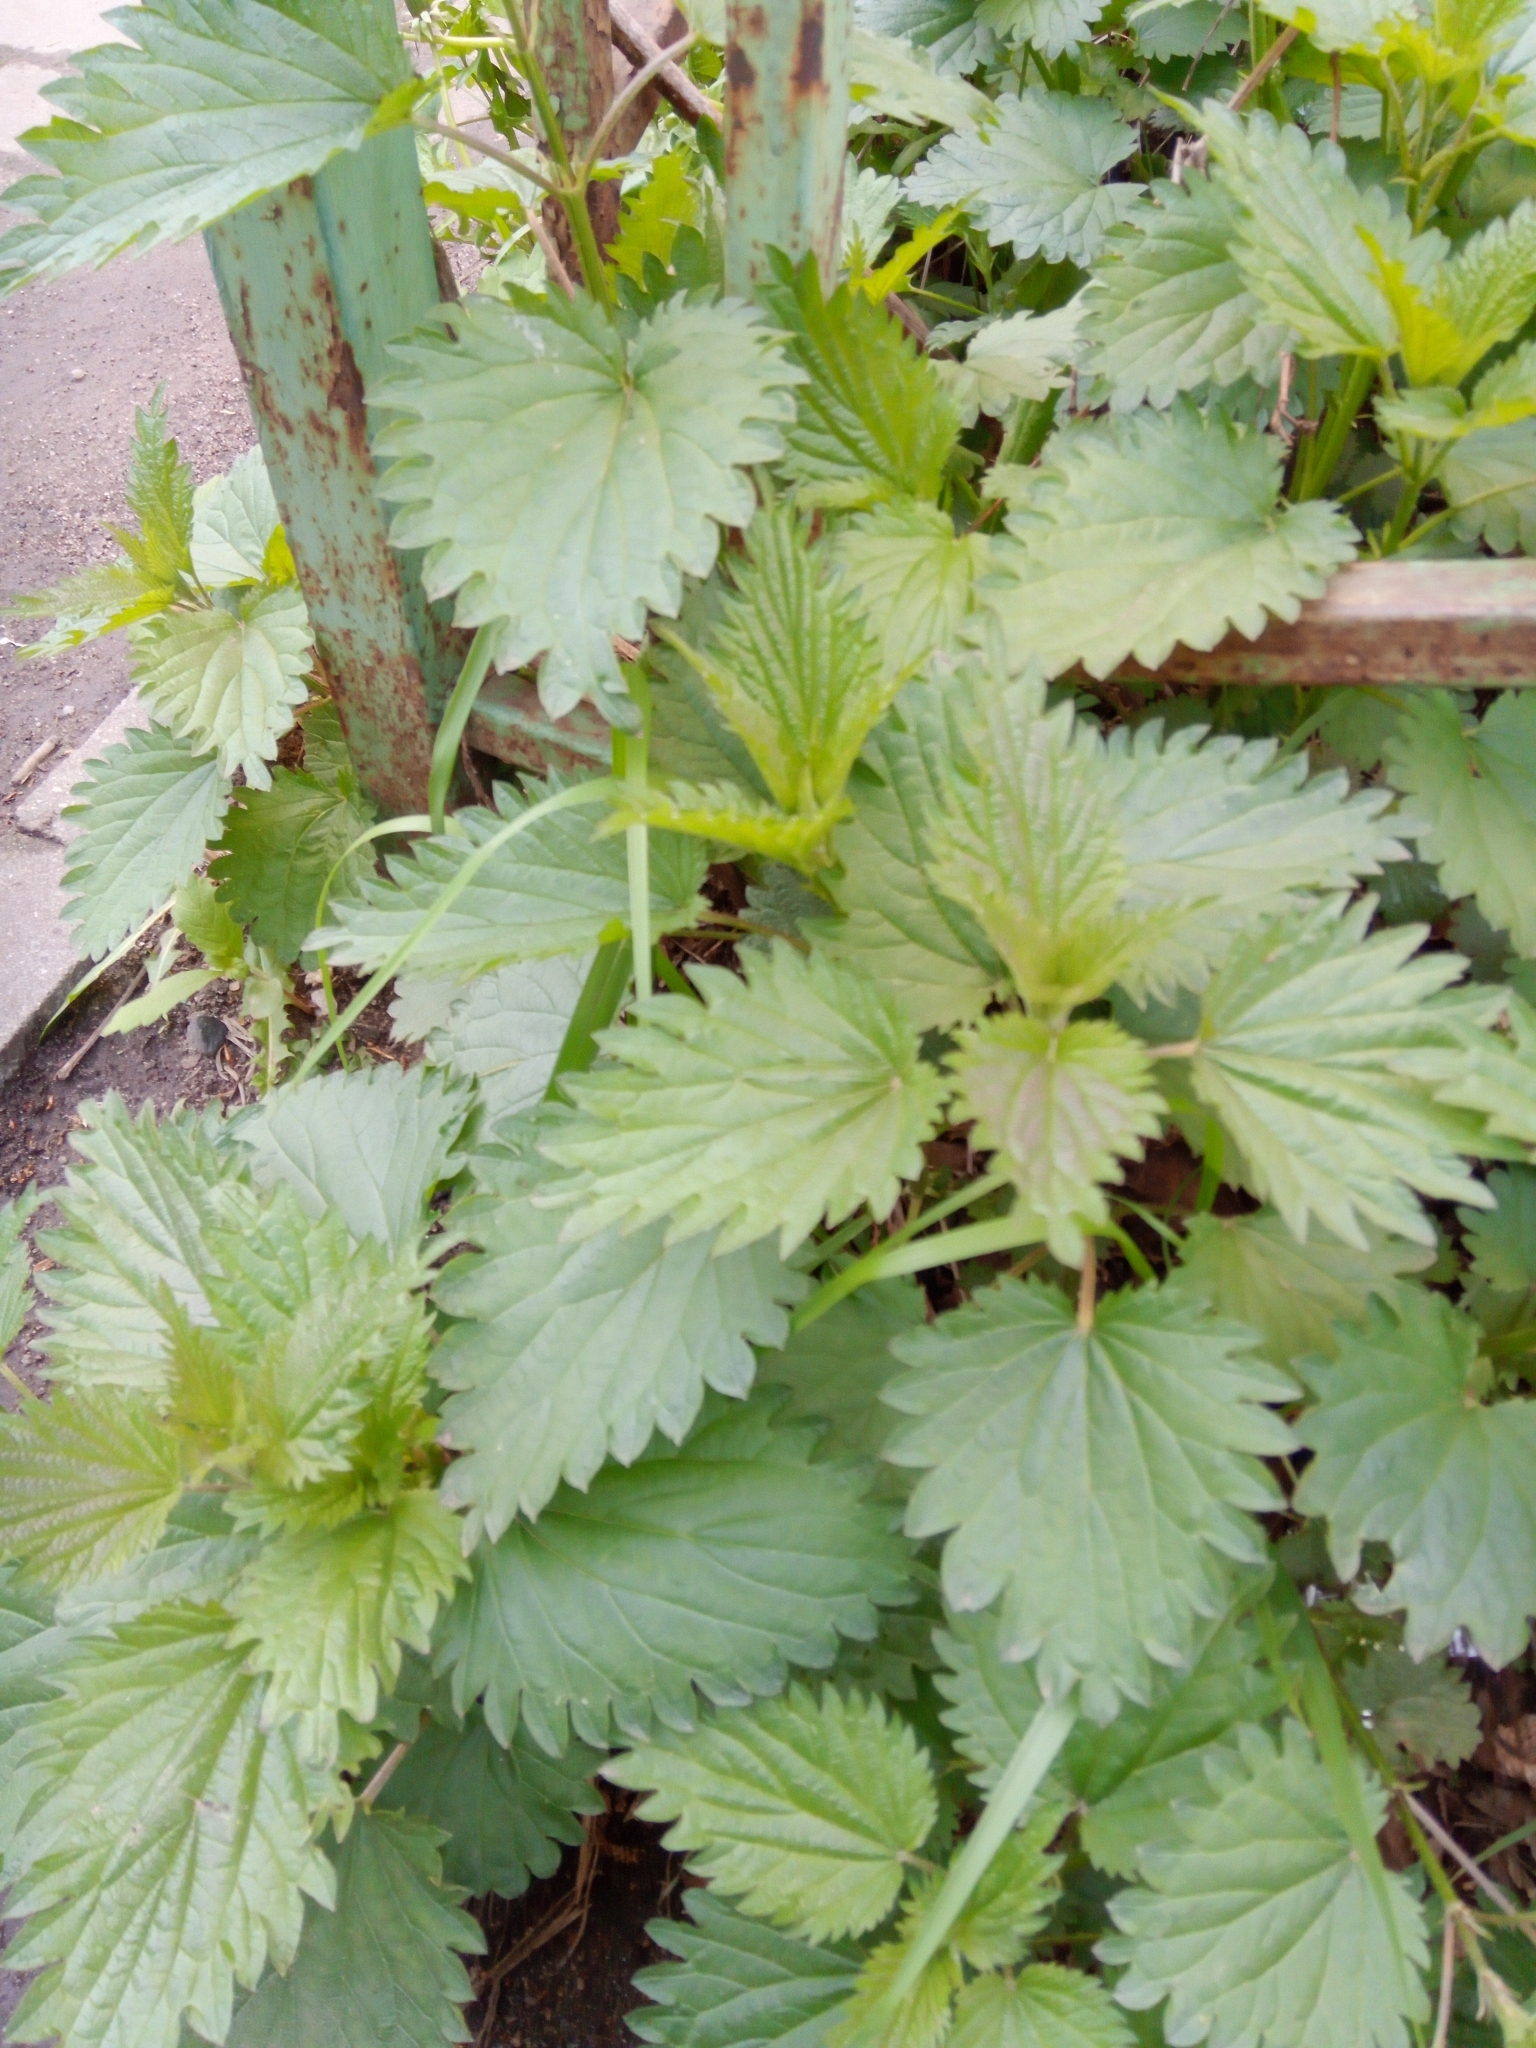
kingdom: Plantae
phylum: Tracheophyta
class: Magnoliopsida
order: Rosales
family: Urticaceae
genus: Urtica
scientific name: Urtica dioica
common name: Common nettle
